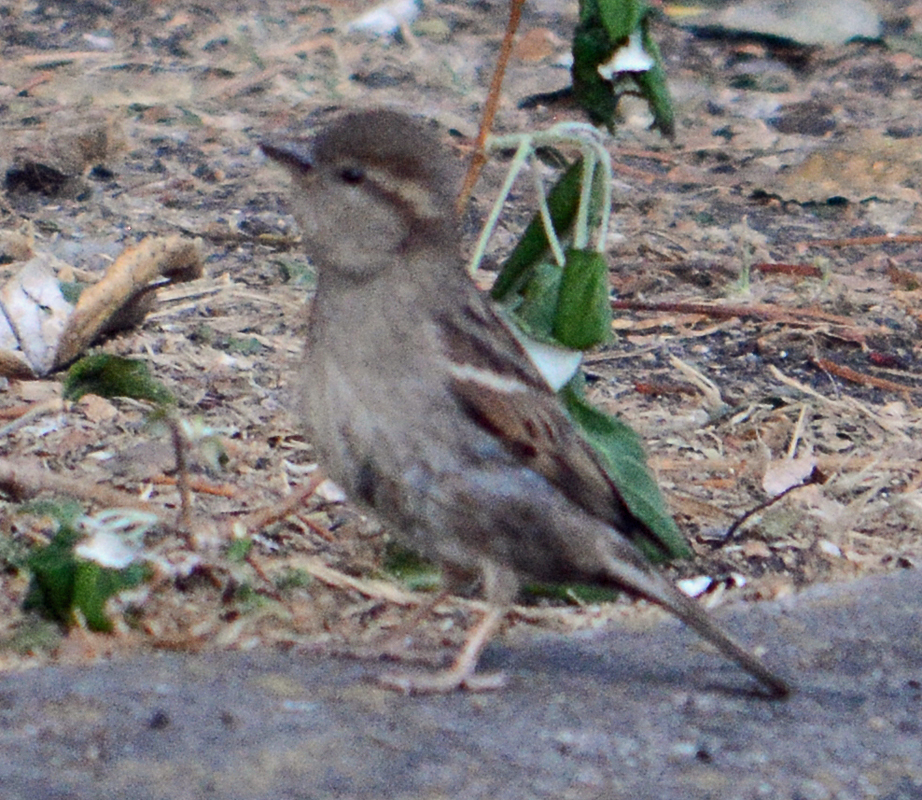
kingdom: Animalia
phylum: Chordata
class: Aves
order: Passeriformes
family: Passeridae
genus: Passer
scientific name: Passer domesticus
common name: House sparrow
